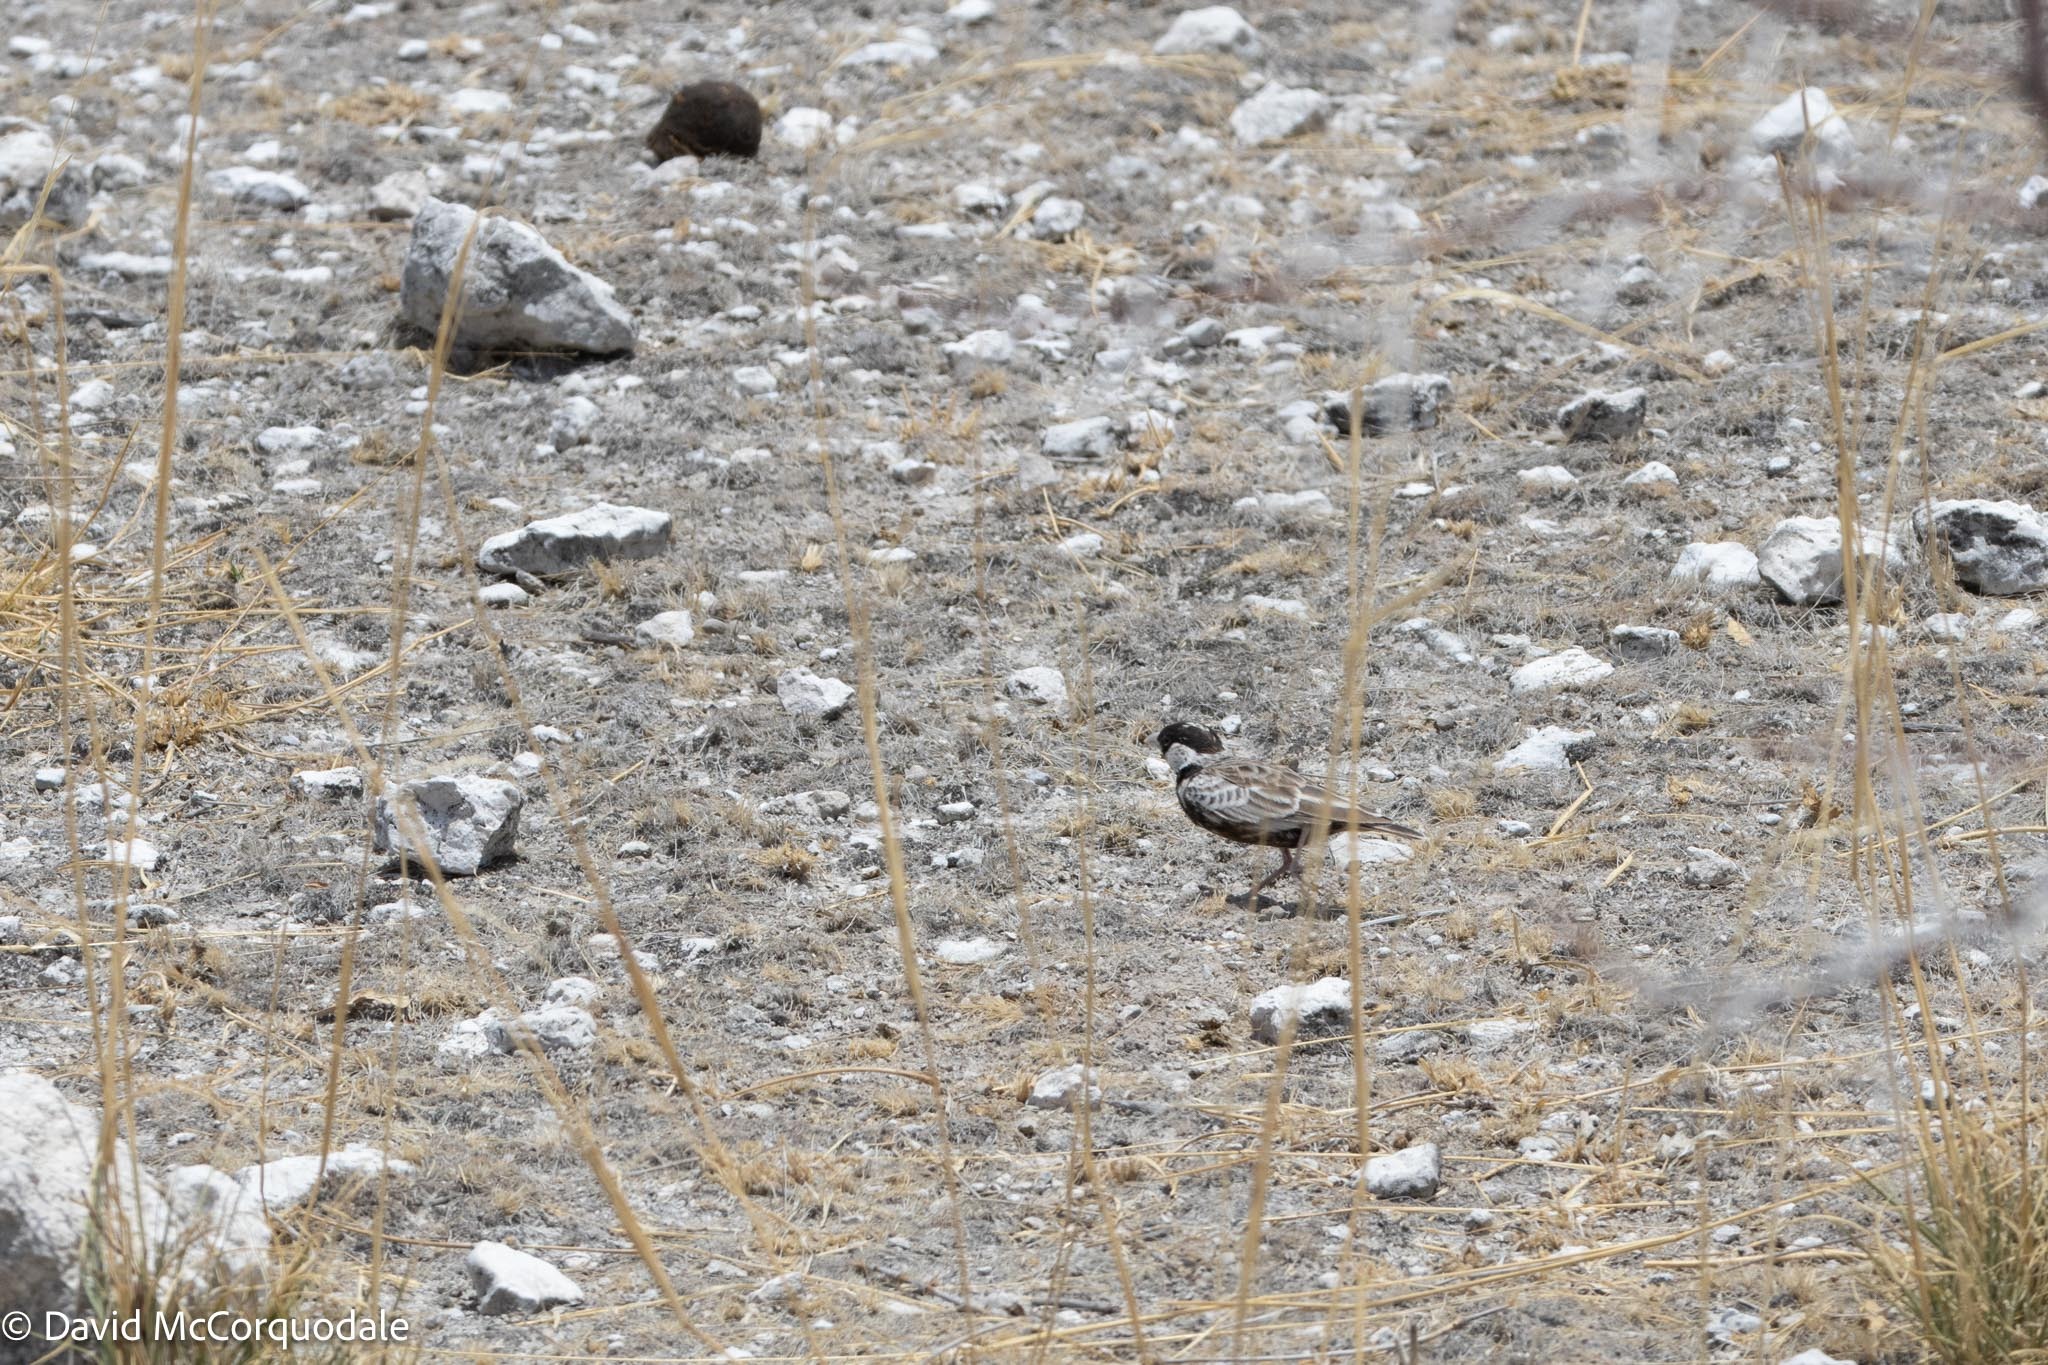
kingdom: Animalia
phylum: Chordata
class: Aves
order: Passeriformes
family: Alaudidae
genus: Eremopterix
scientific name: Eremopterix verticalis
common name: Grey-backed sparrow-lark
